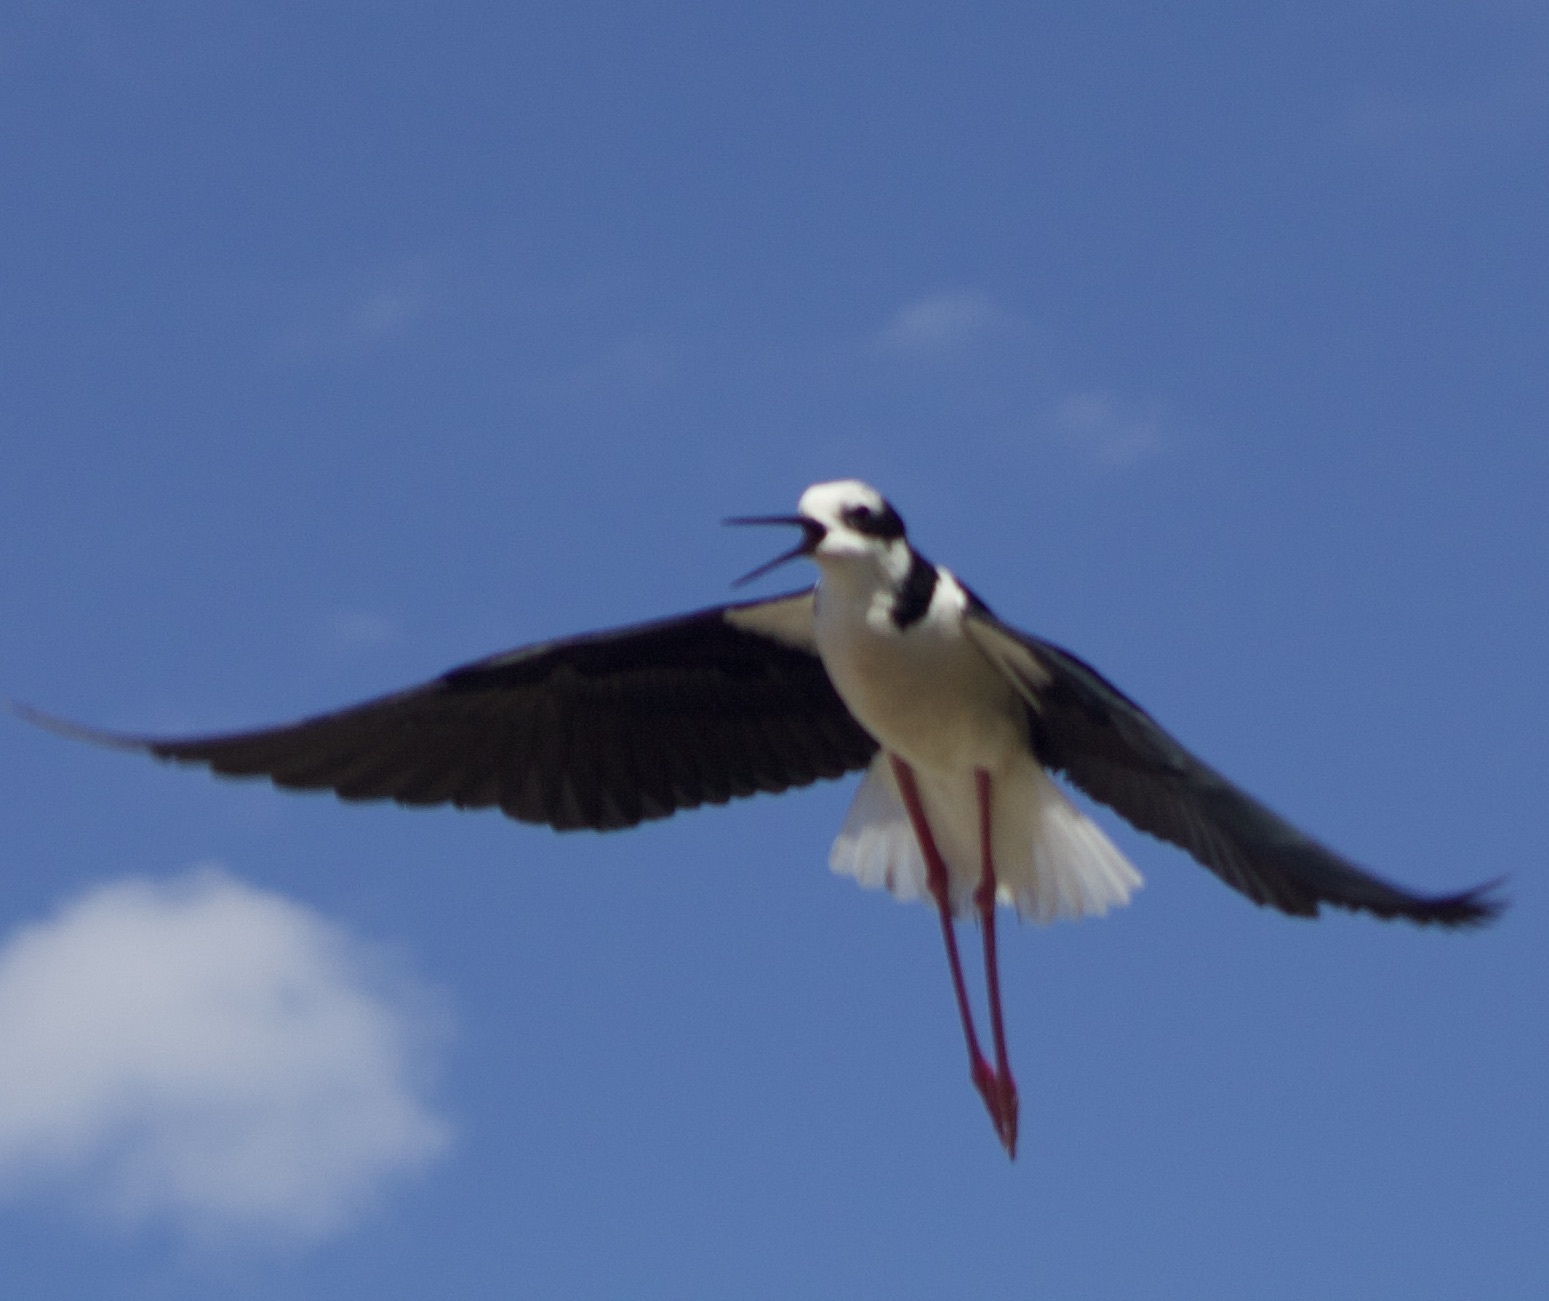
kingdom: Animalia
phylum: Chordata
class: Aves
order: Charadriiformes
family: Recurvirostridae
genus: Himantopus
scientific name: Himantopus mexicanus
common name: Black-necked stilt
